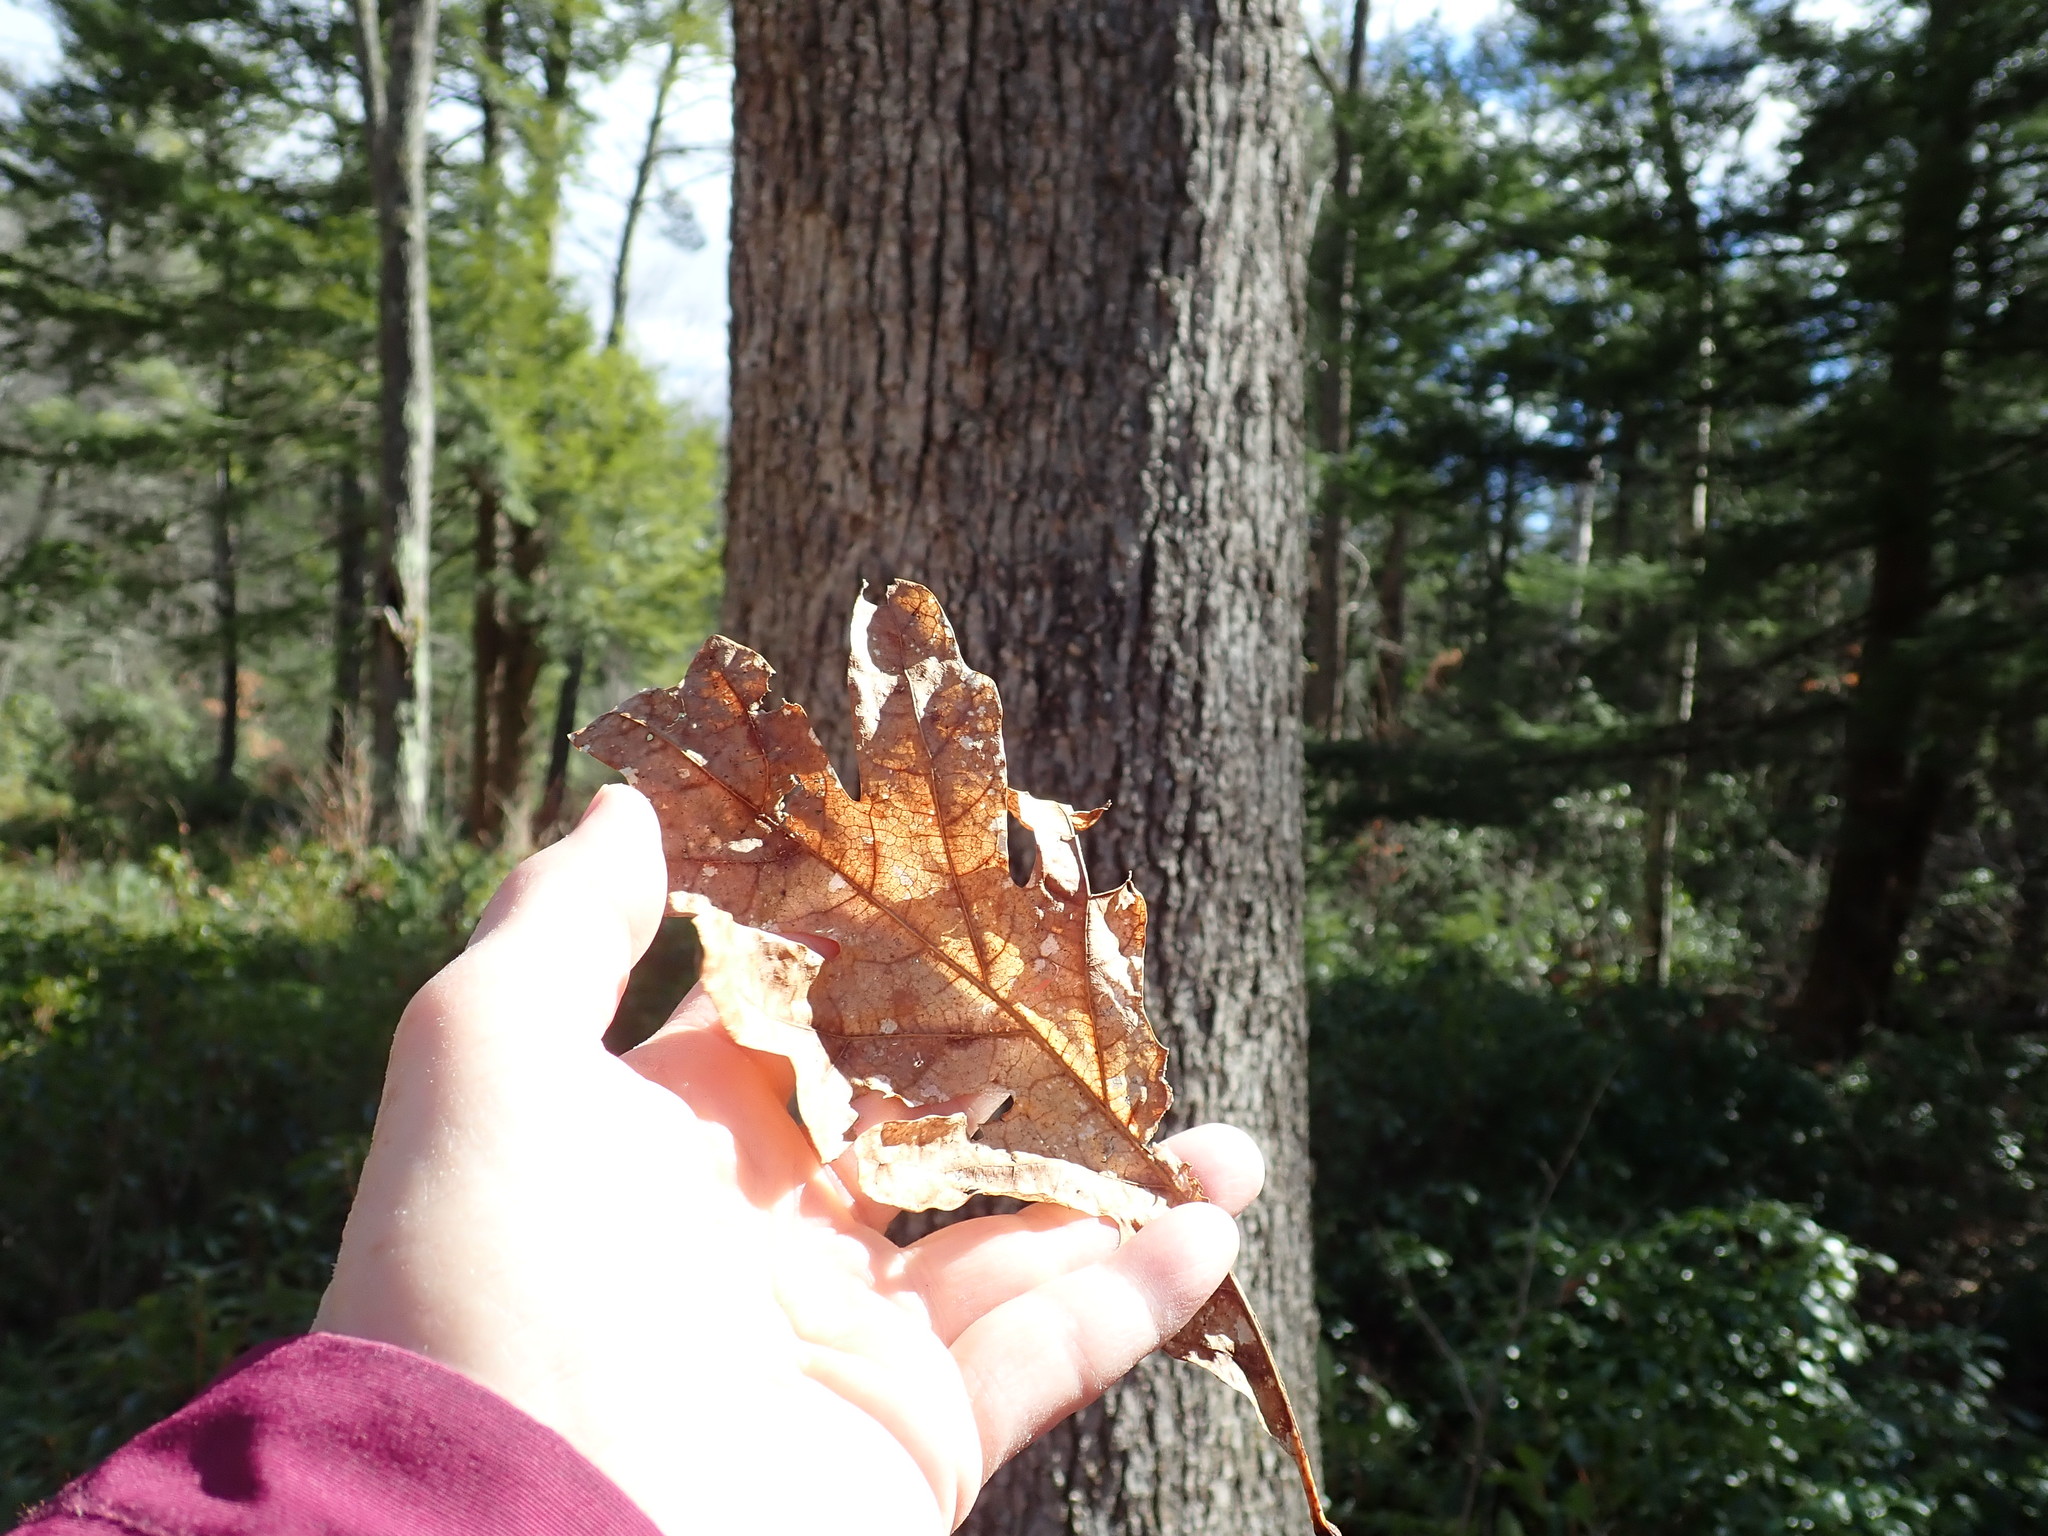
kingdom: Plantae
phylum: Tracheophyta
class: Magnoliopsida
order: Fagales
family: Fagaceae
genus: Quercus
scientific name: Quercus alba
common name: White oak
